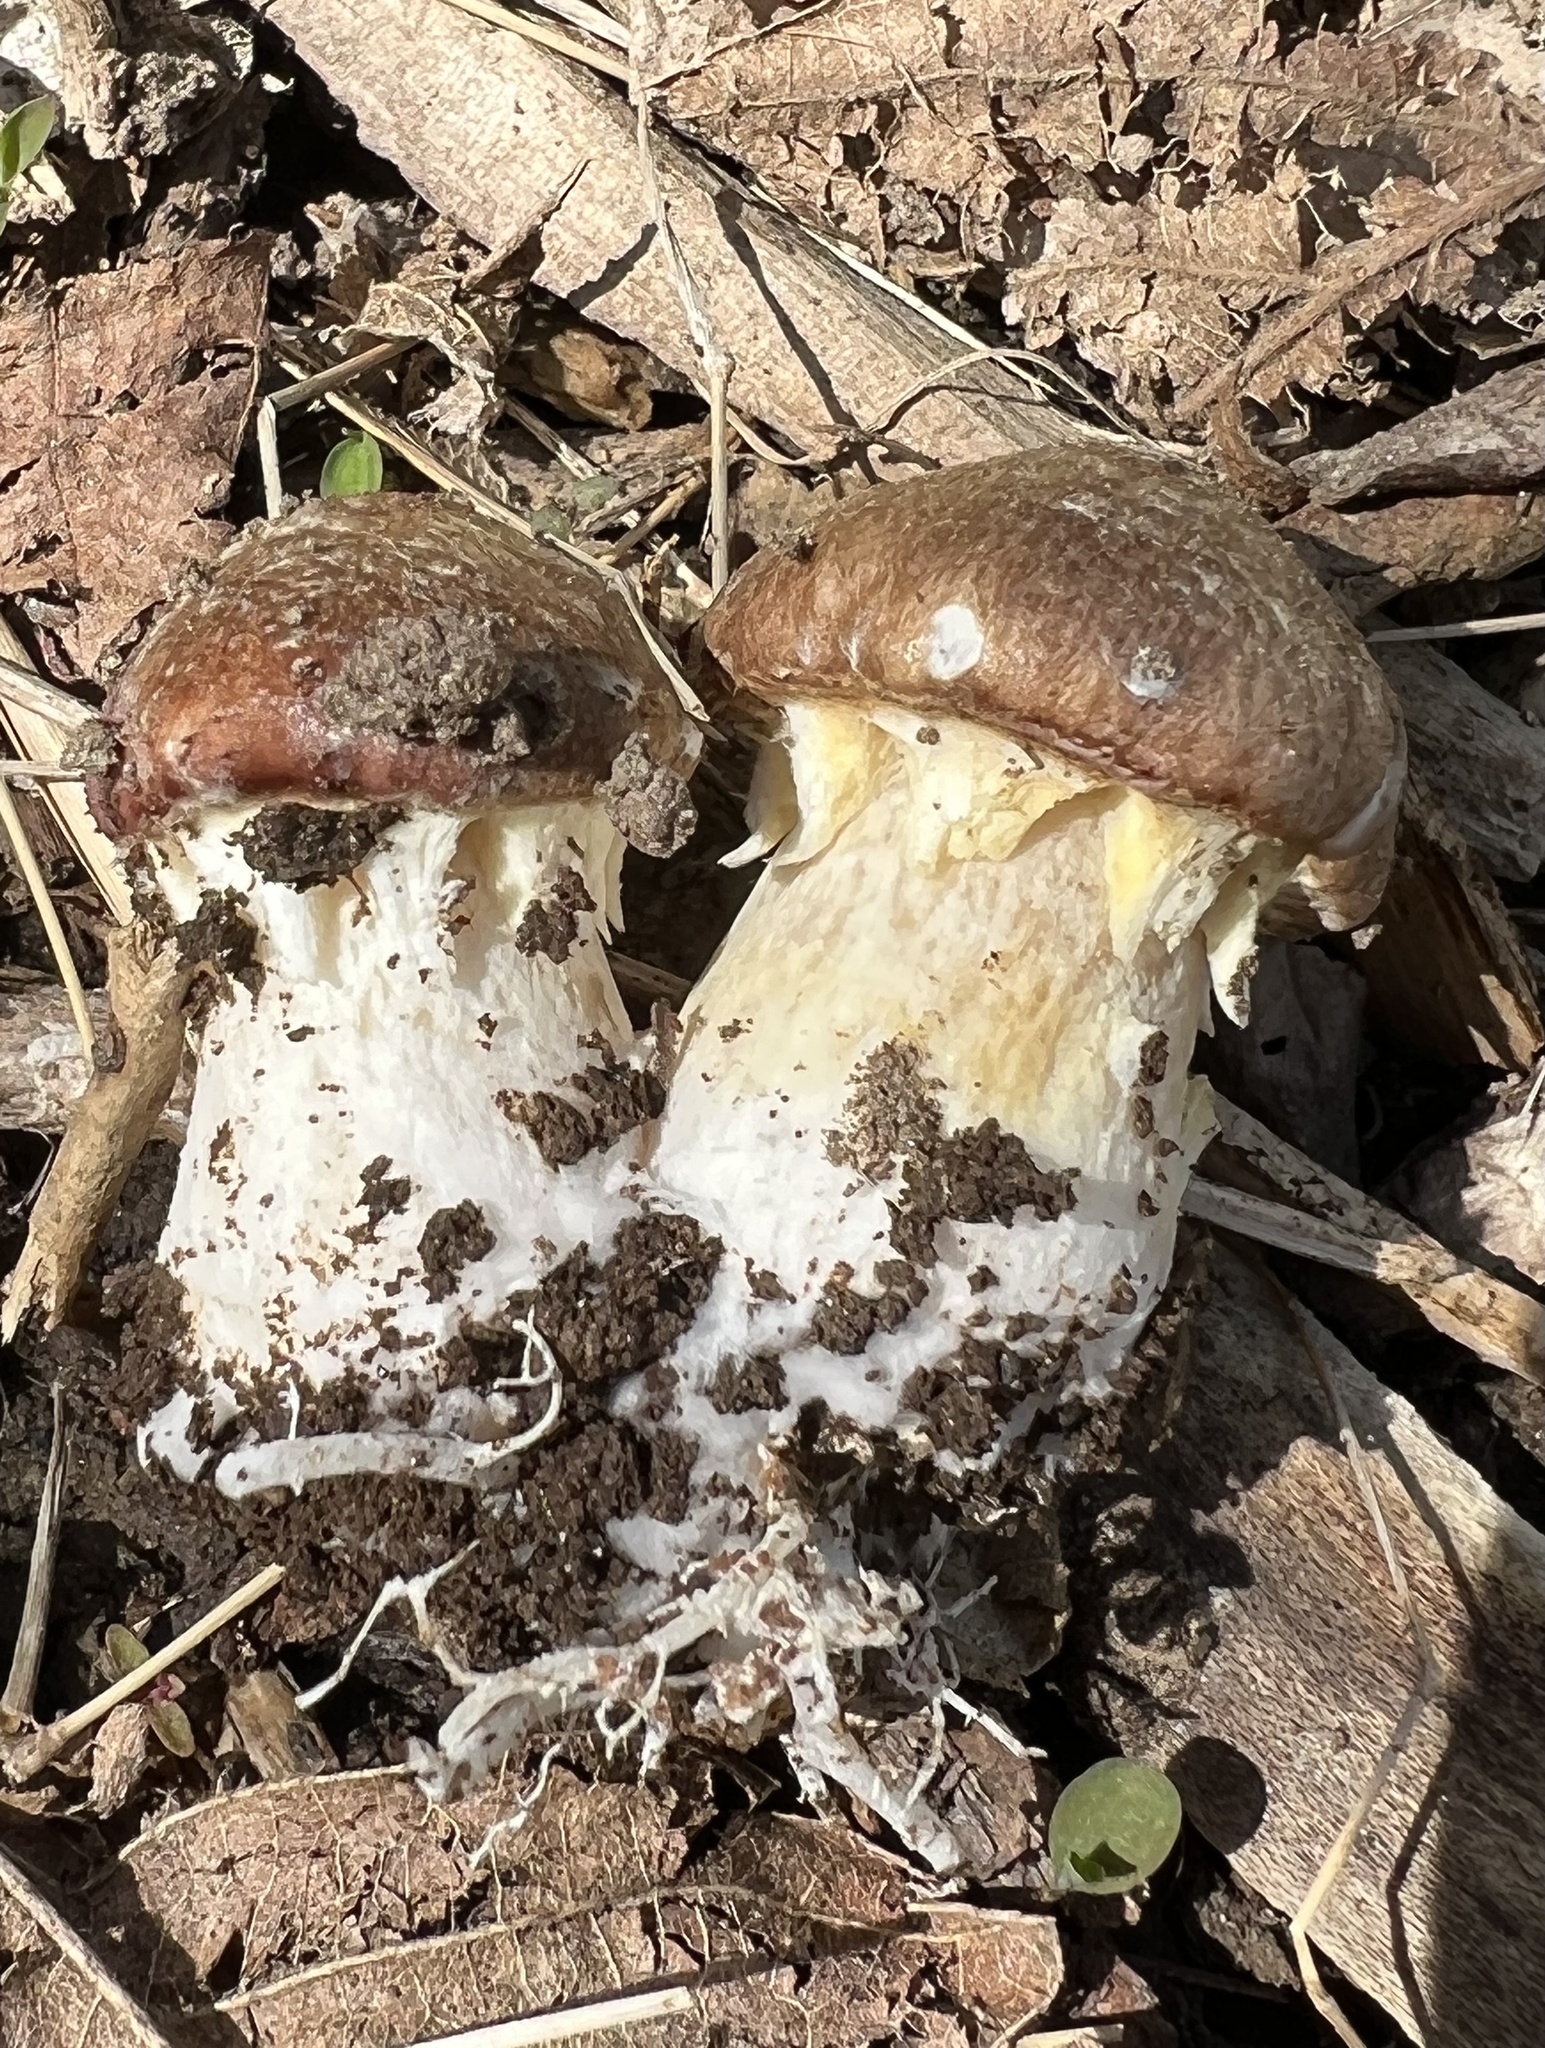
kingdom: Fungi
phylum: Basidiomycota
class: Agaricomycetes
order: Agaricales
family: Strophariaceae
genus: Stropharia
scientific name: Stropharia rugosoannulata
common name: Wine roundhead
